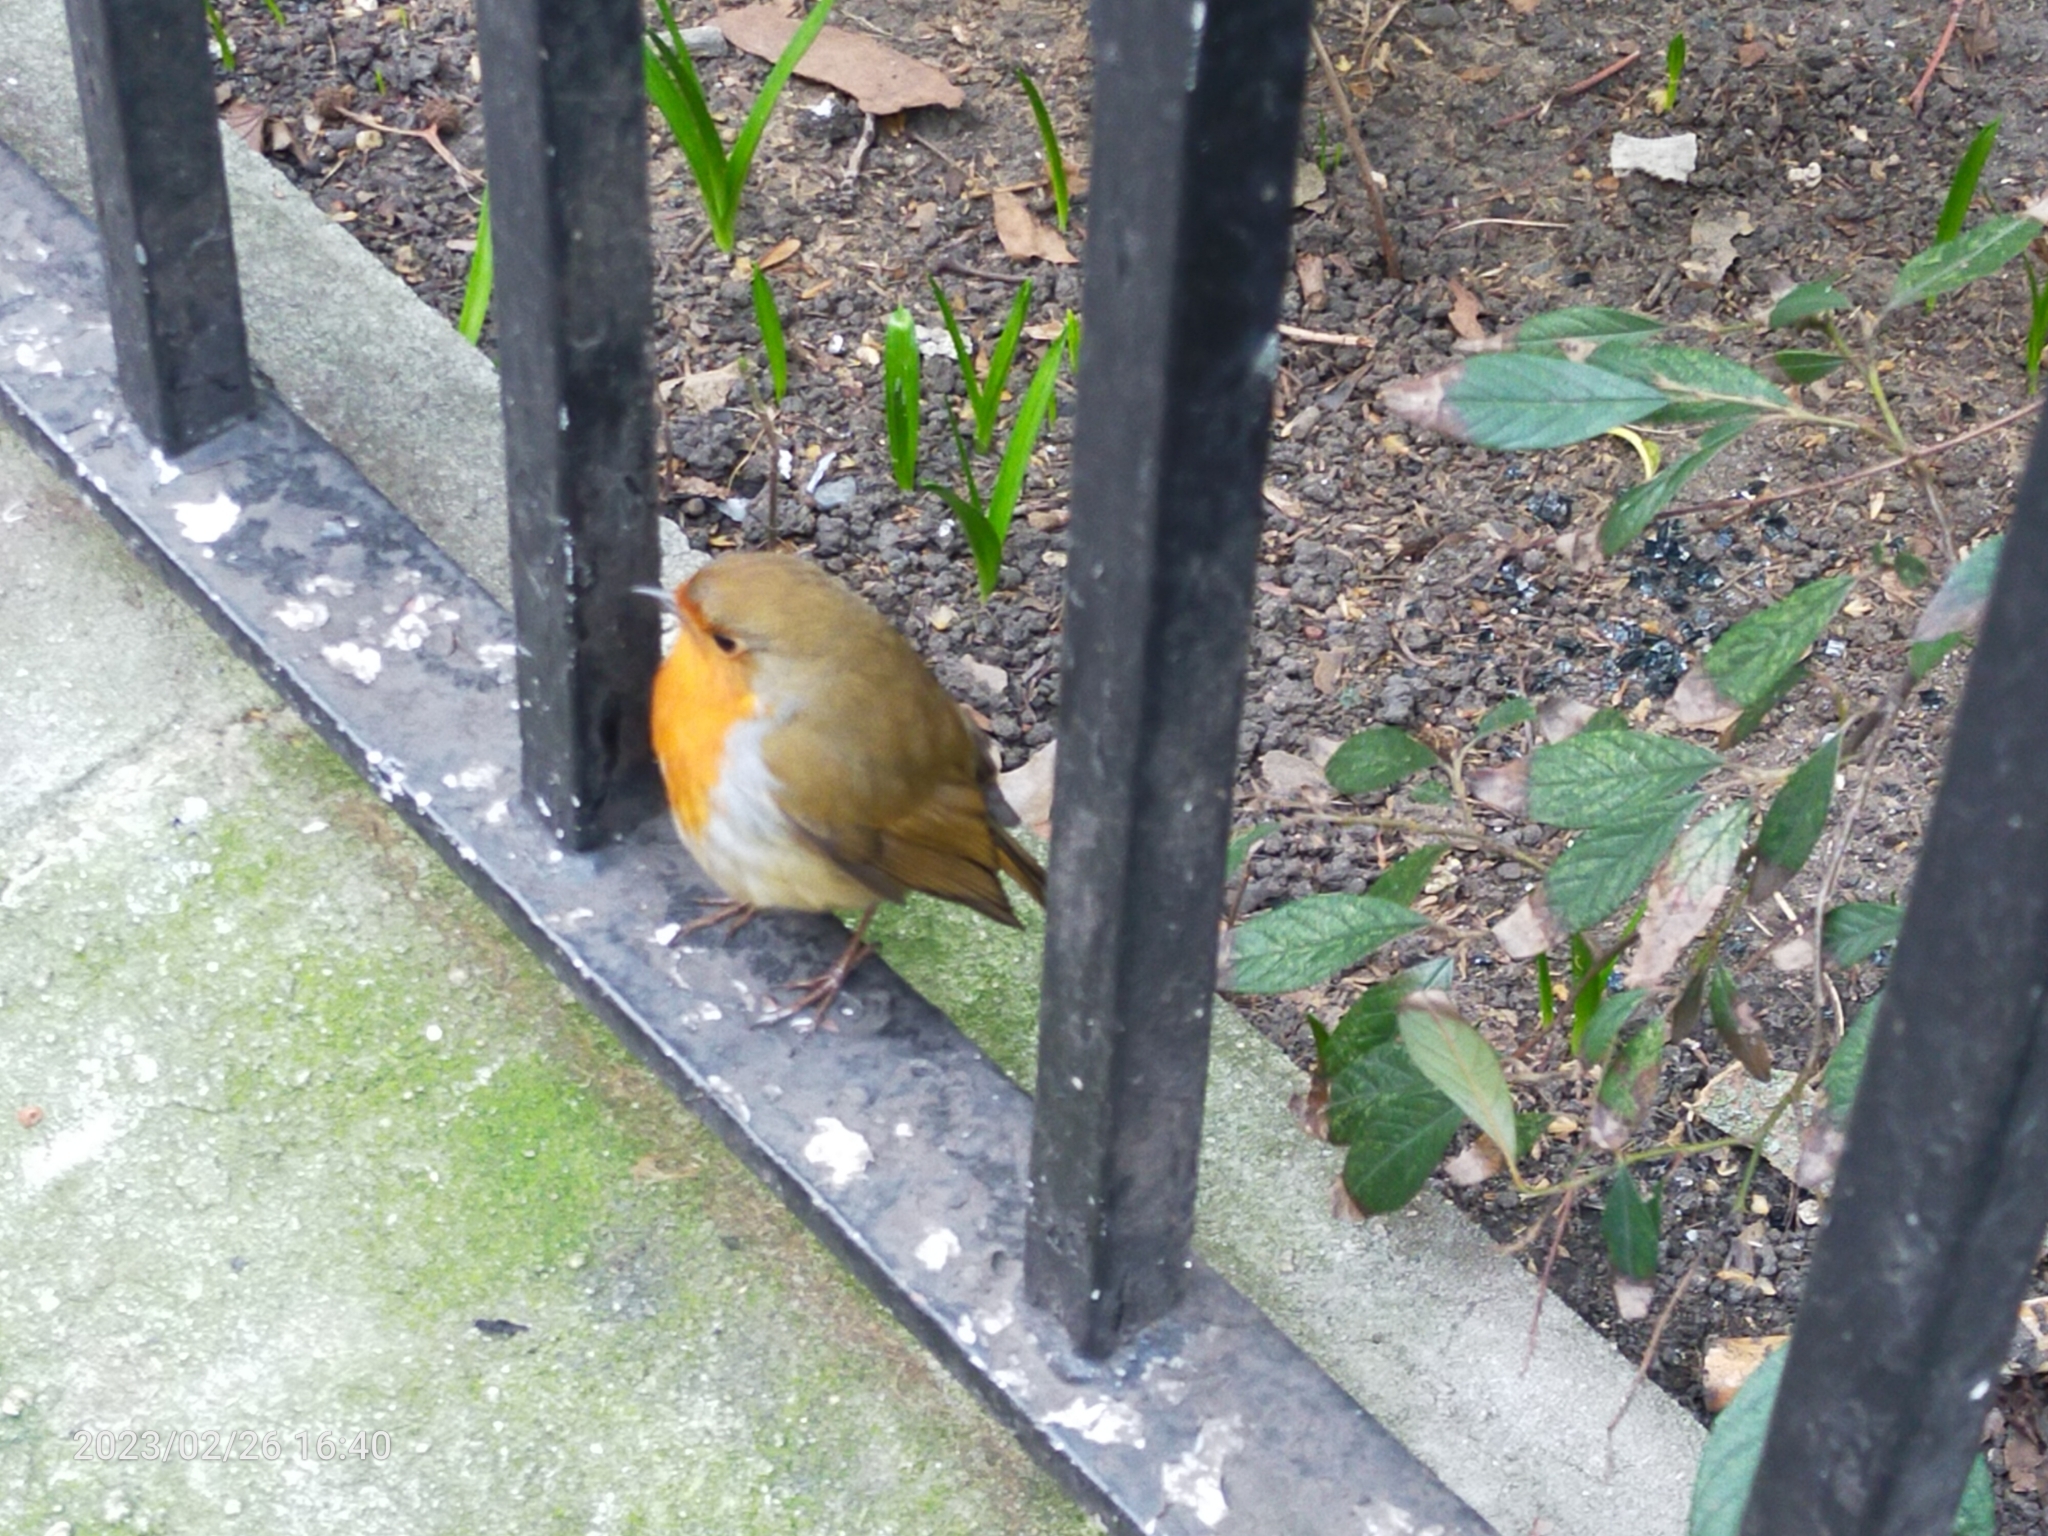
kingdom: Animalia
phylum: Chordata
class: Aves
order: Passeriformes
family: Muscicapidae
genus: Erithacus
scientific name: Erithacus rubecula
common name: European robin
